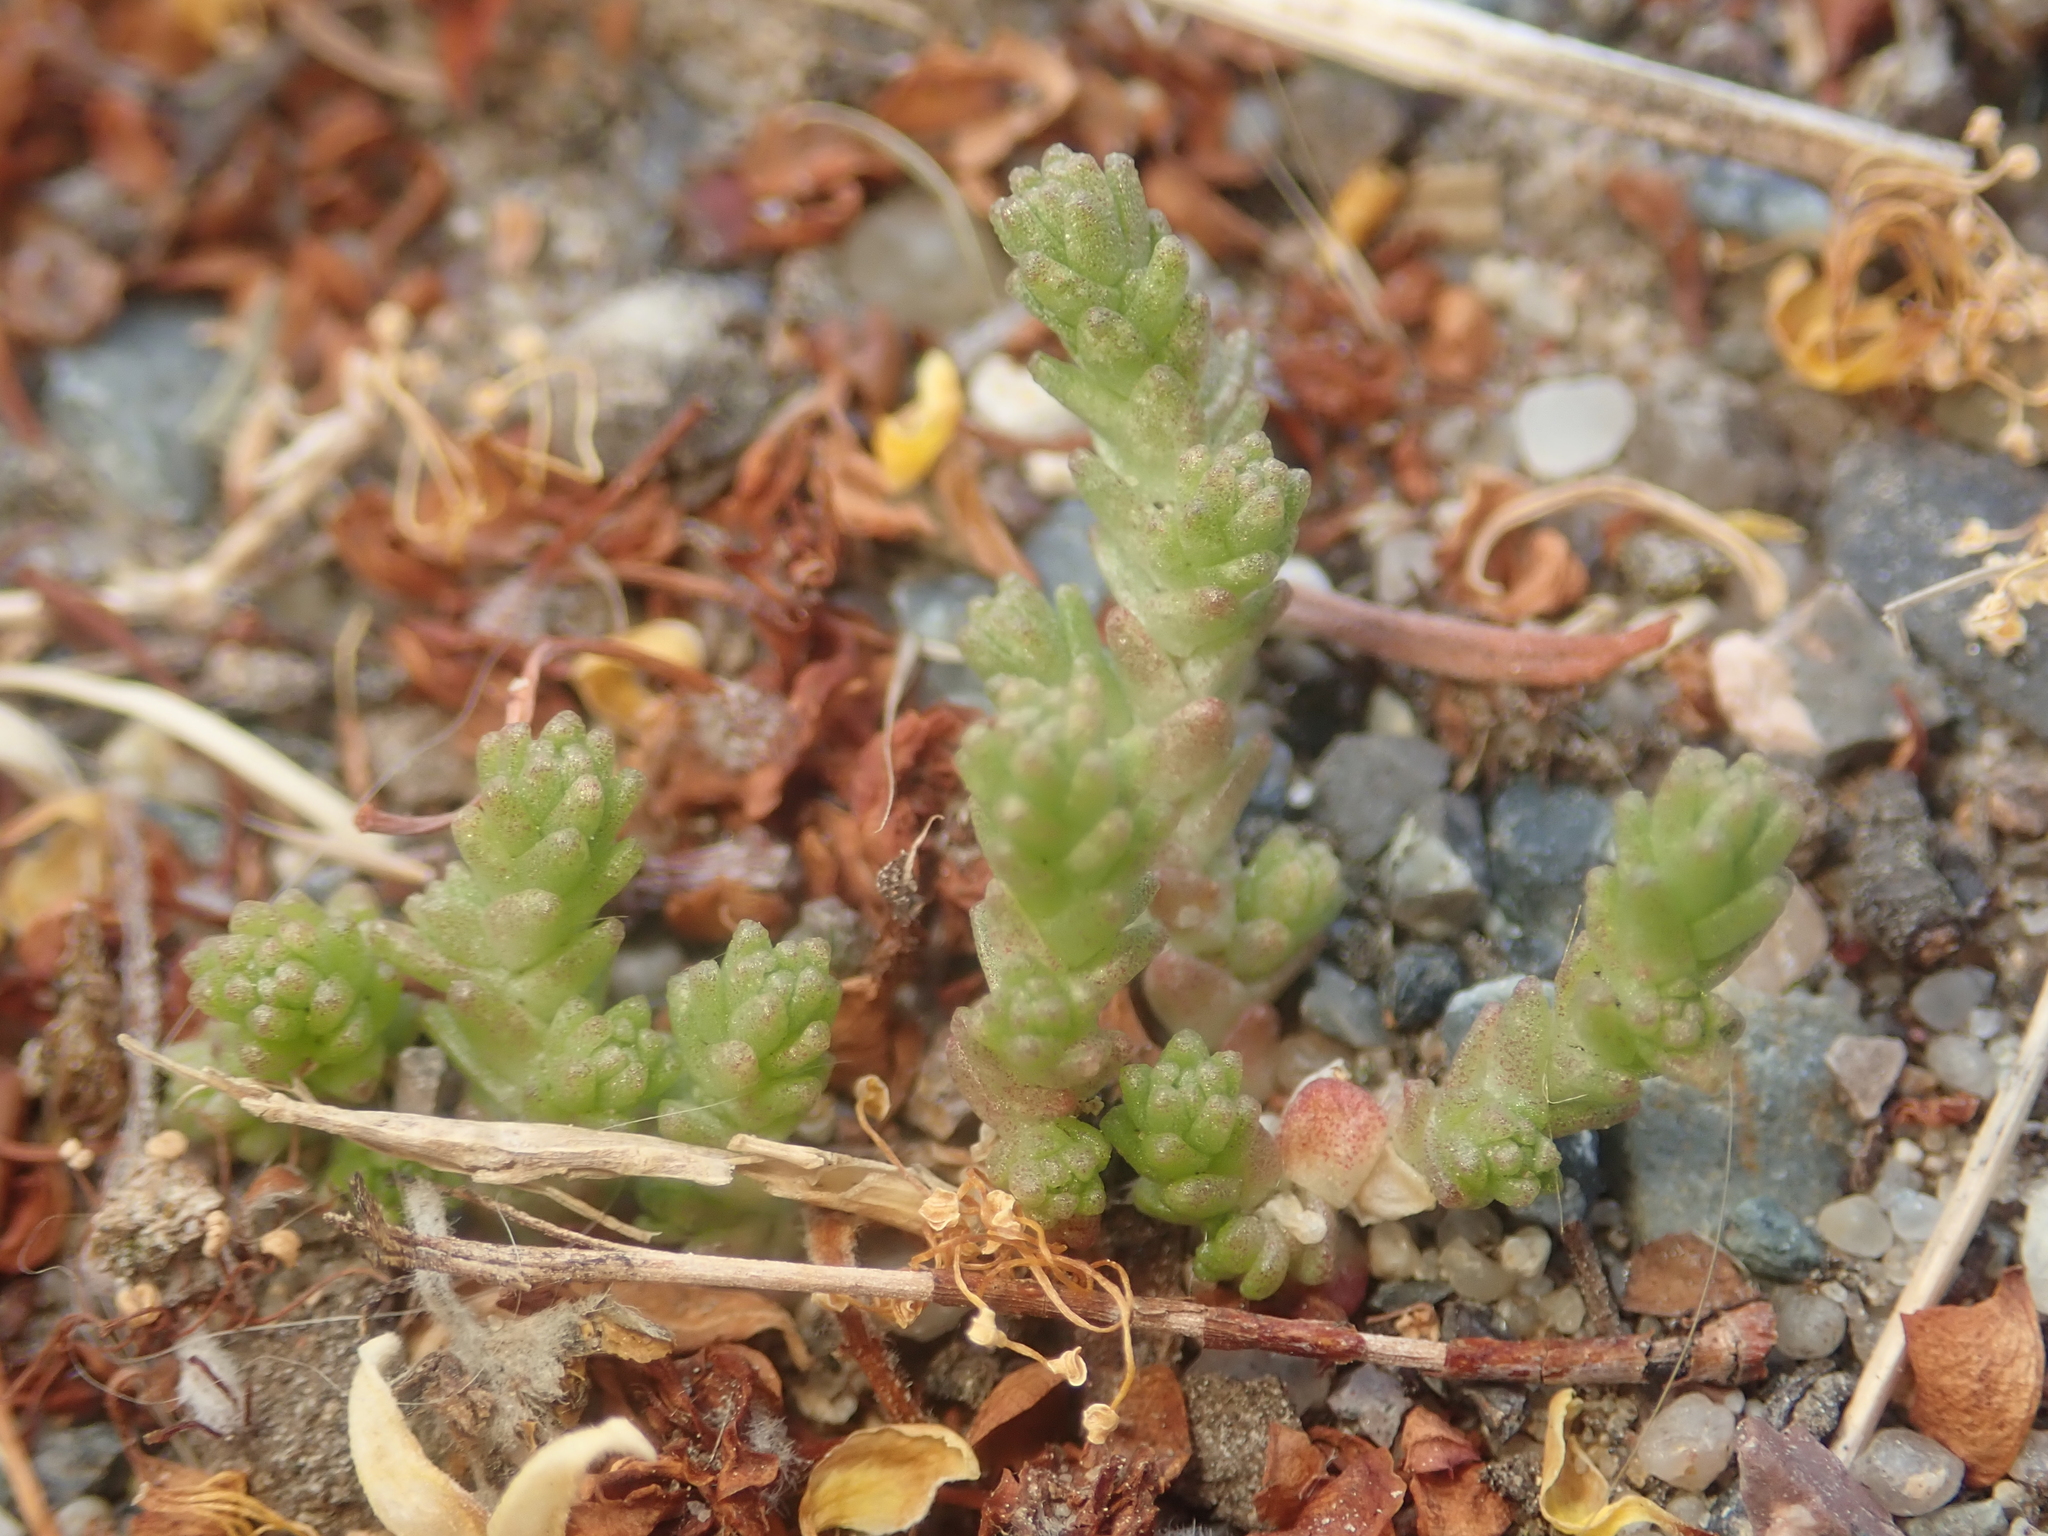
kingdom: Plantae
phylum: Tracheophyta
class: Magnoliopsida
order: Saxifragales
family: Crassulaceae
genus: Sedum
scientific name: Sedum acre
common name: Biting stonecrop
